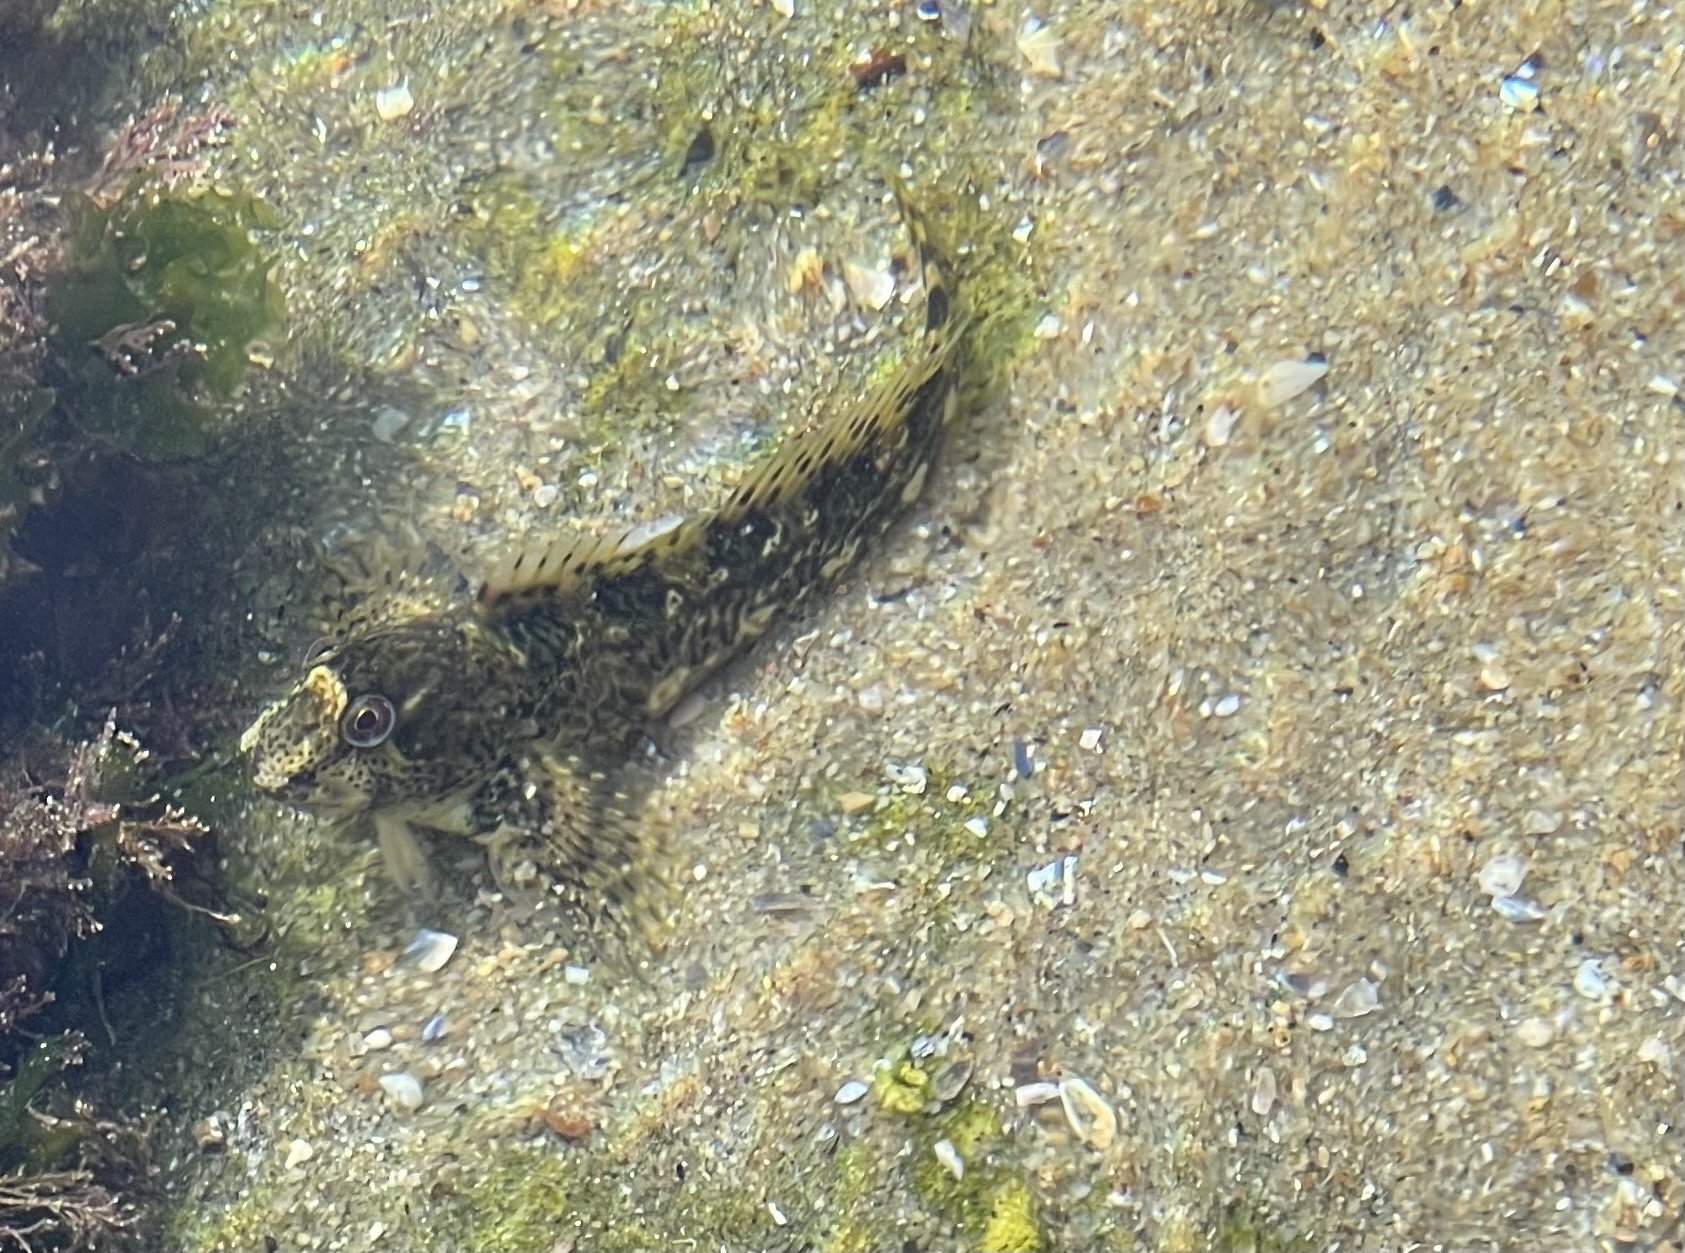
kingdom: Animalia
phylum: Chordata
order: Perciformes
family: Blenniidae
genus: Lipophrys
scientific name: Lipophrys pholis
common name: Shanny
